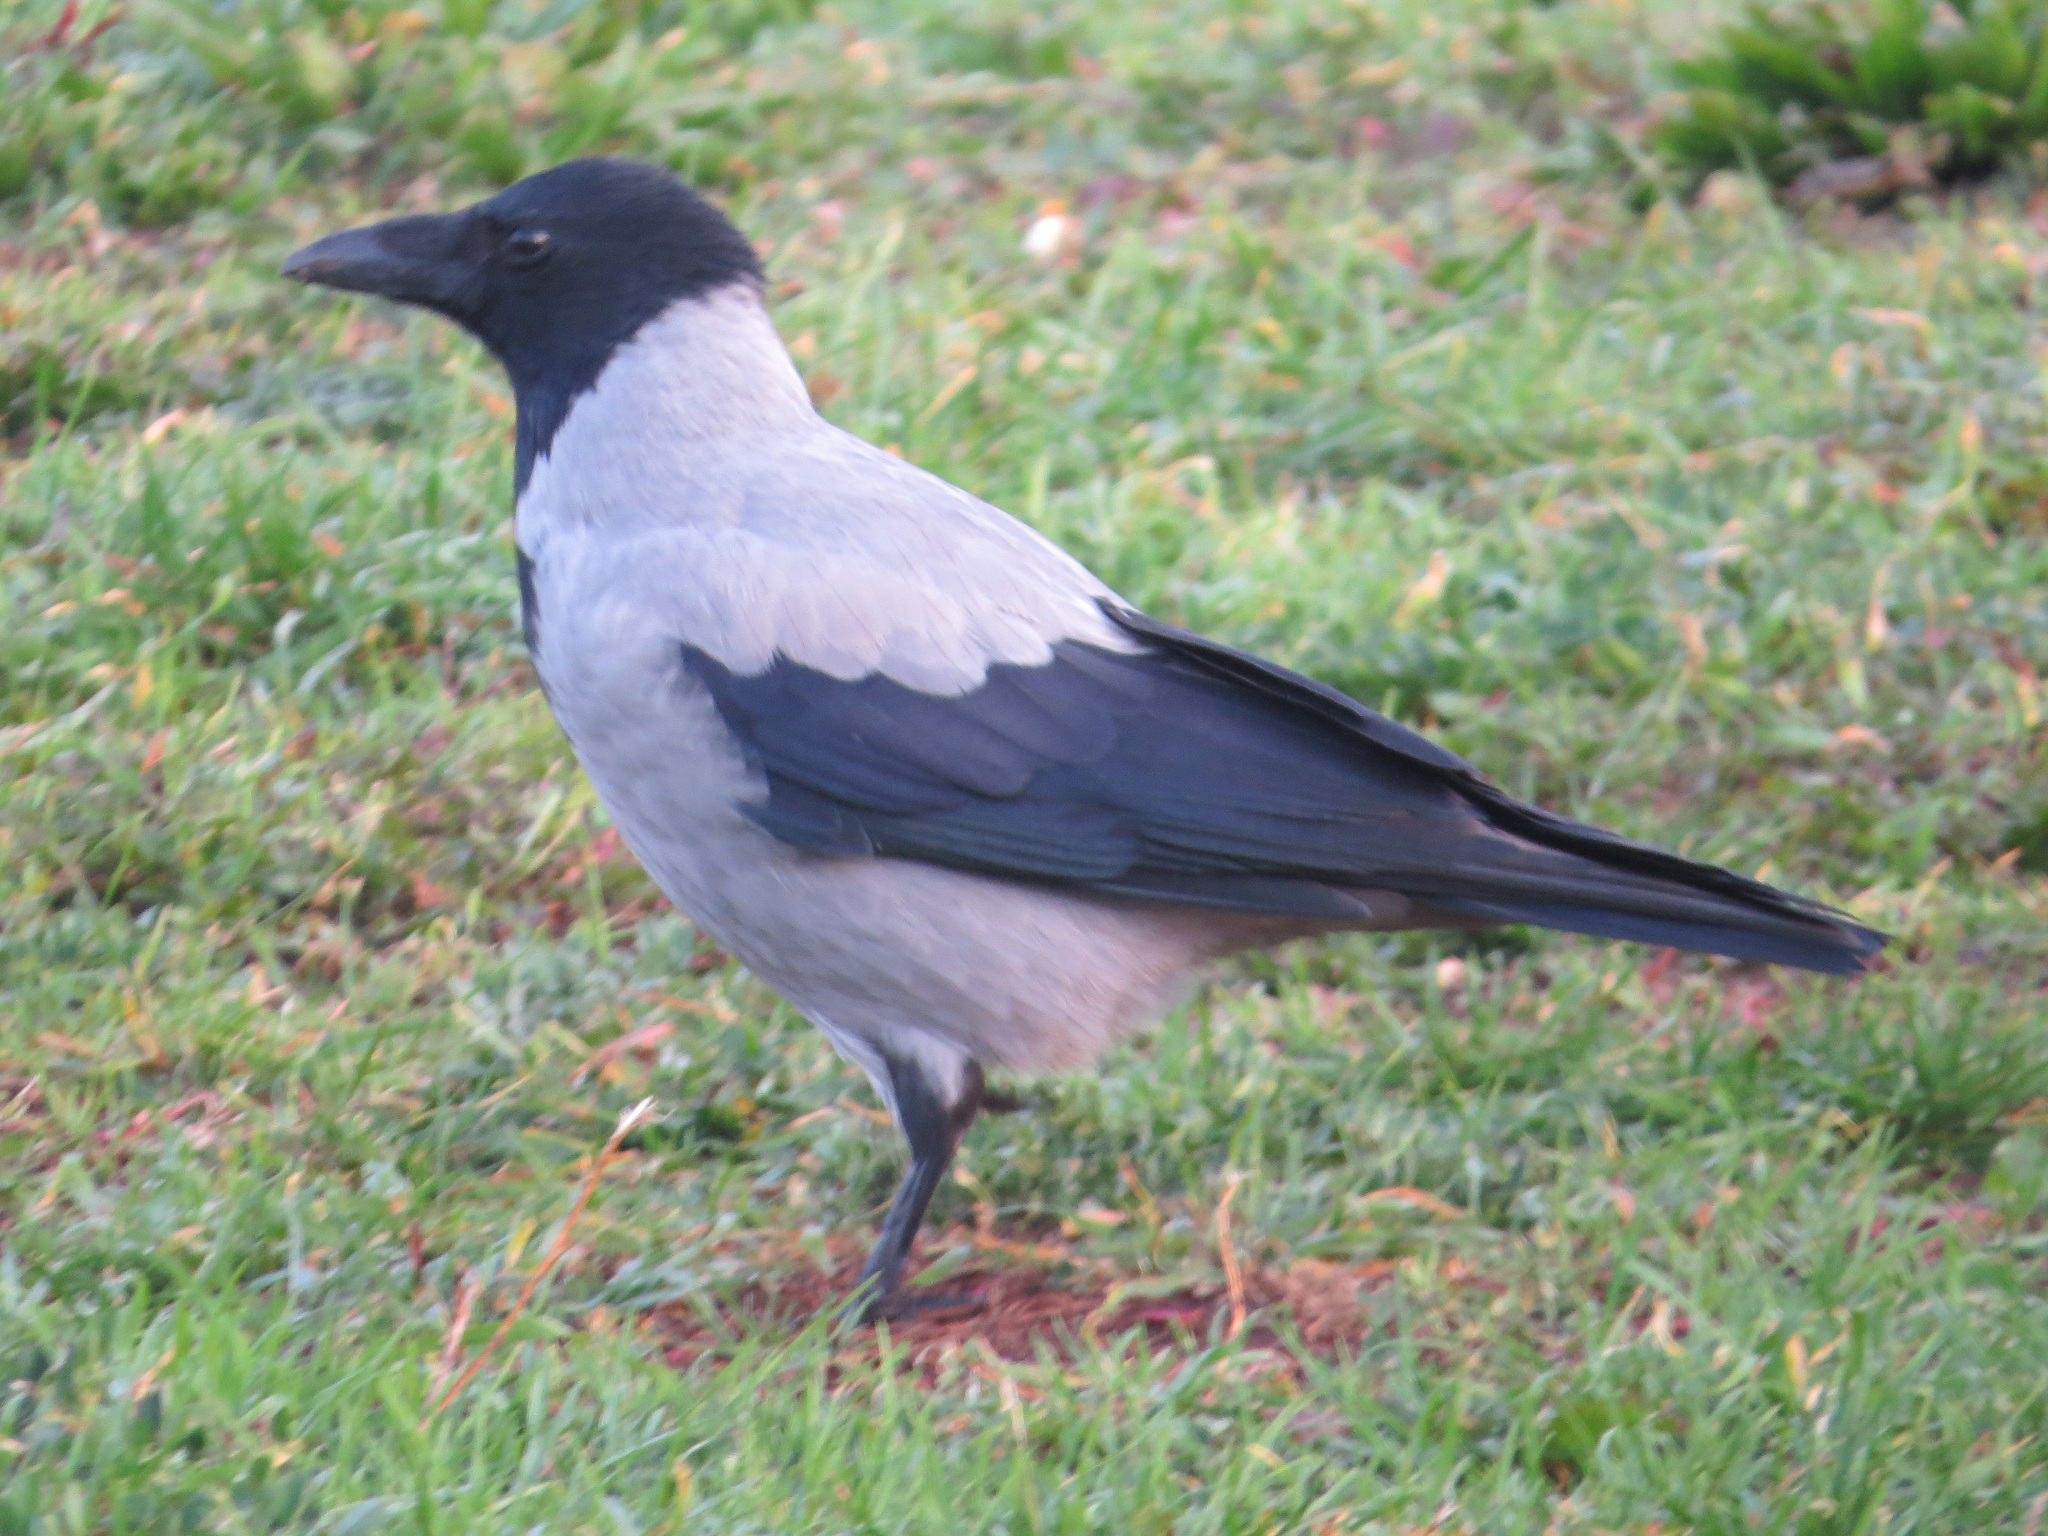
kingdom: Animalia
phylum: Chordata
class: Aves
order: Passeriformes
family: Corvidae
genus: Corvus
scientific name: Corvus cornix
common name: Hooded crow
